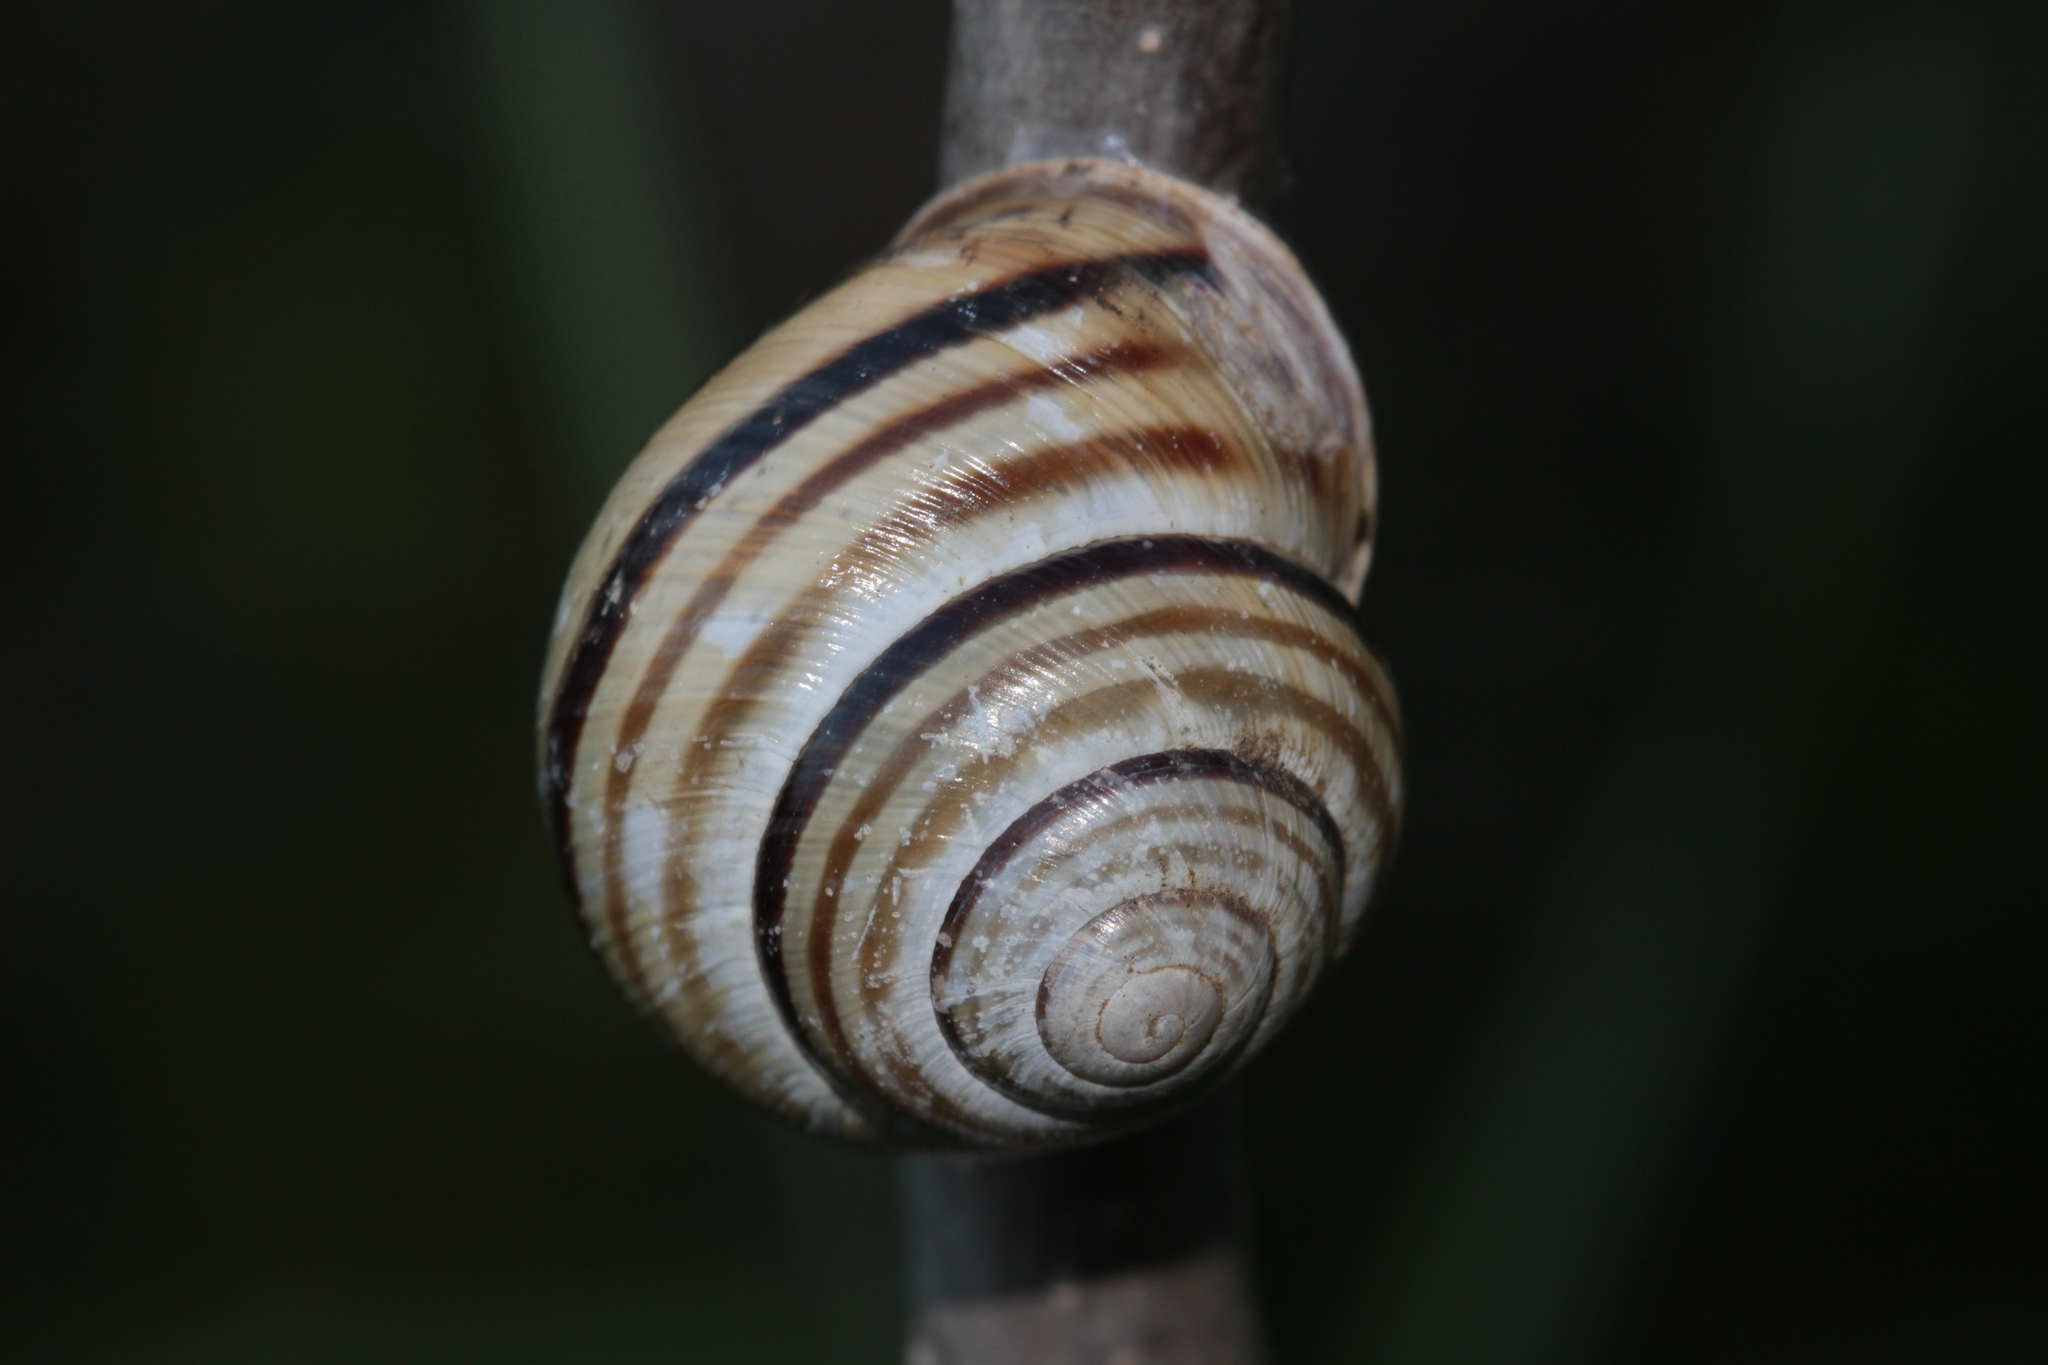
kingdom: Animalia
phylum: Mollusca
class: Gastropoda
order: Stylommatophora
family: Helicidae
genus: Caucasotachea
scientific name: Caucasotachea vindobonensis
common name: European helicid land snail
